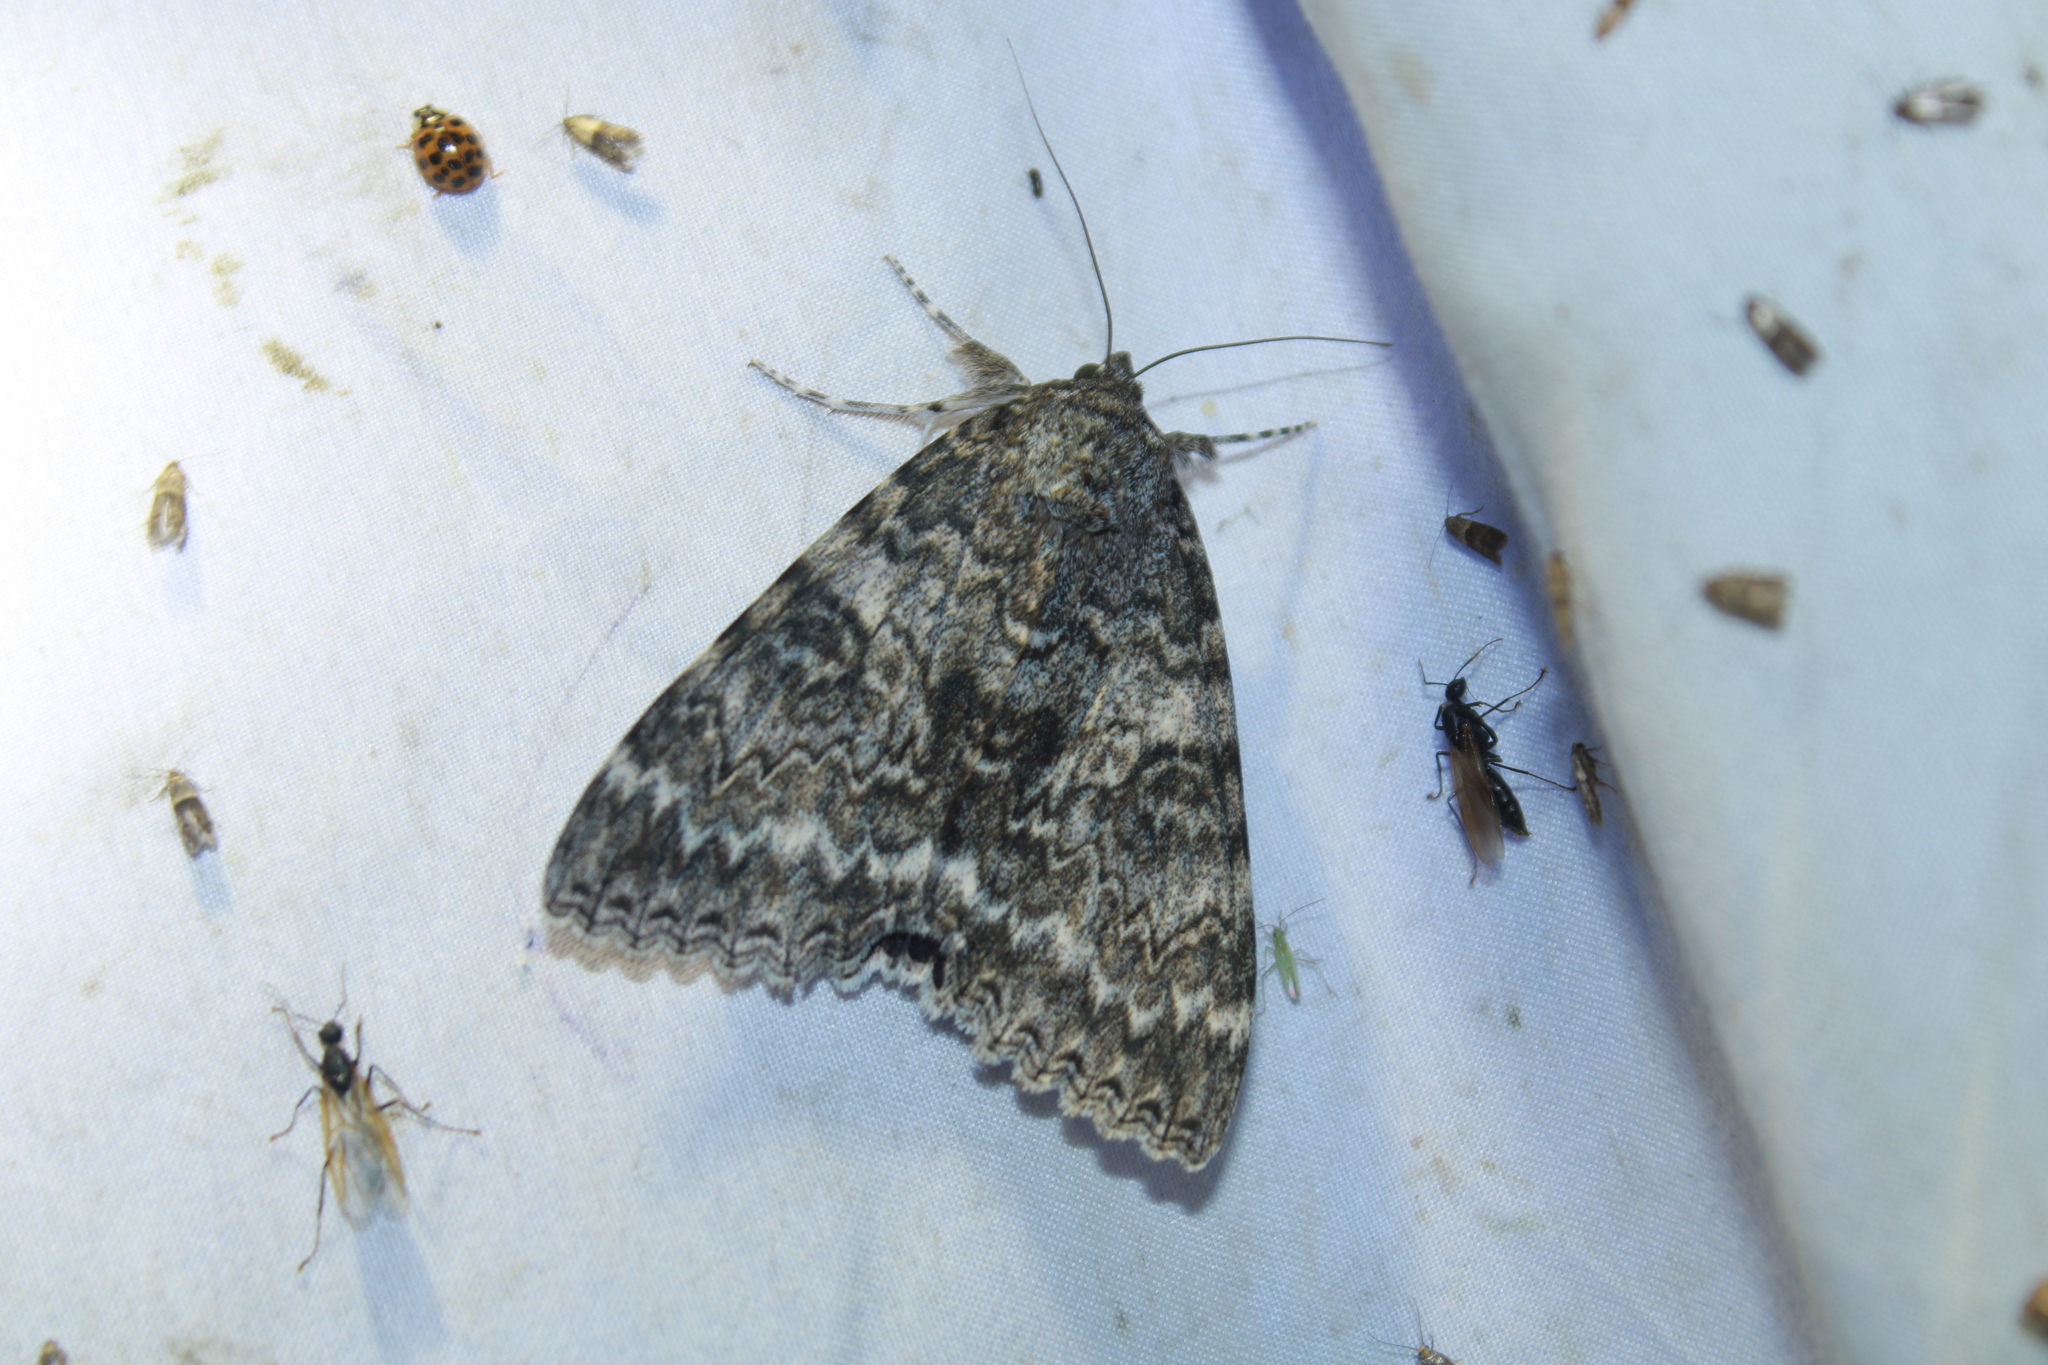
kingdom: Animalia
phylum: Arthropoda
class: Insecta
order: Lepidoptera
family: Erebidae
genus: Catocala
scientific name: Catocala unijuga
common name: Once-married underwing
